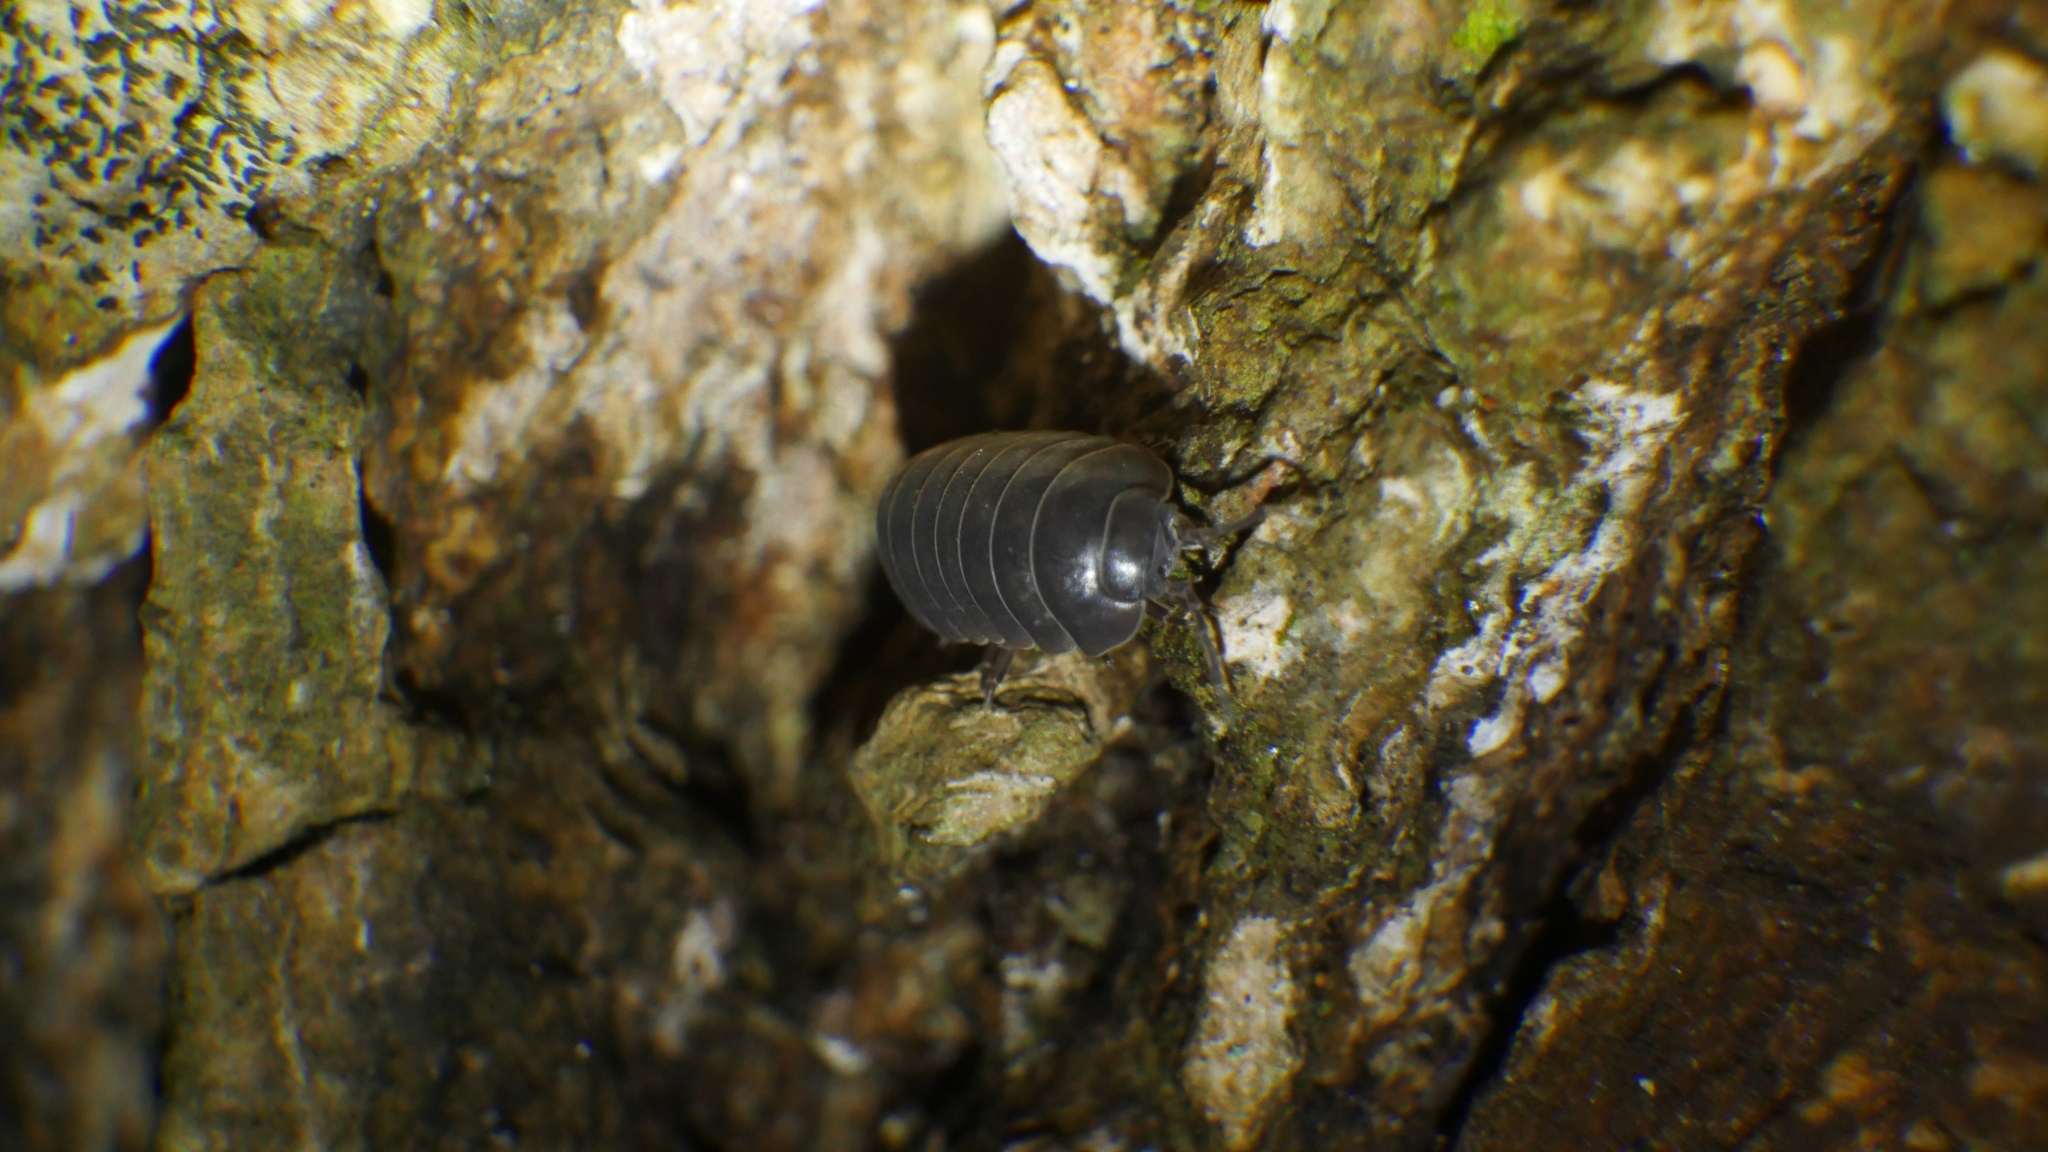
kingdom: Animalia
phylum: Arthropoda
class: Malacostraca
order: Isopoda
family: Armadillidiidae
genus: Armadillidium
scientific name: Armadillidium vulgare
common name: Common pill woodlouse
